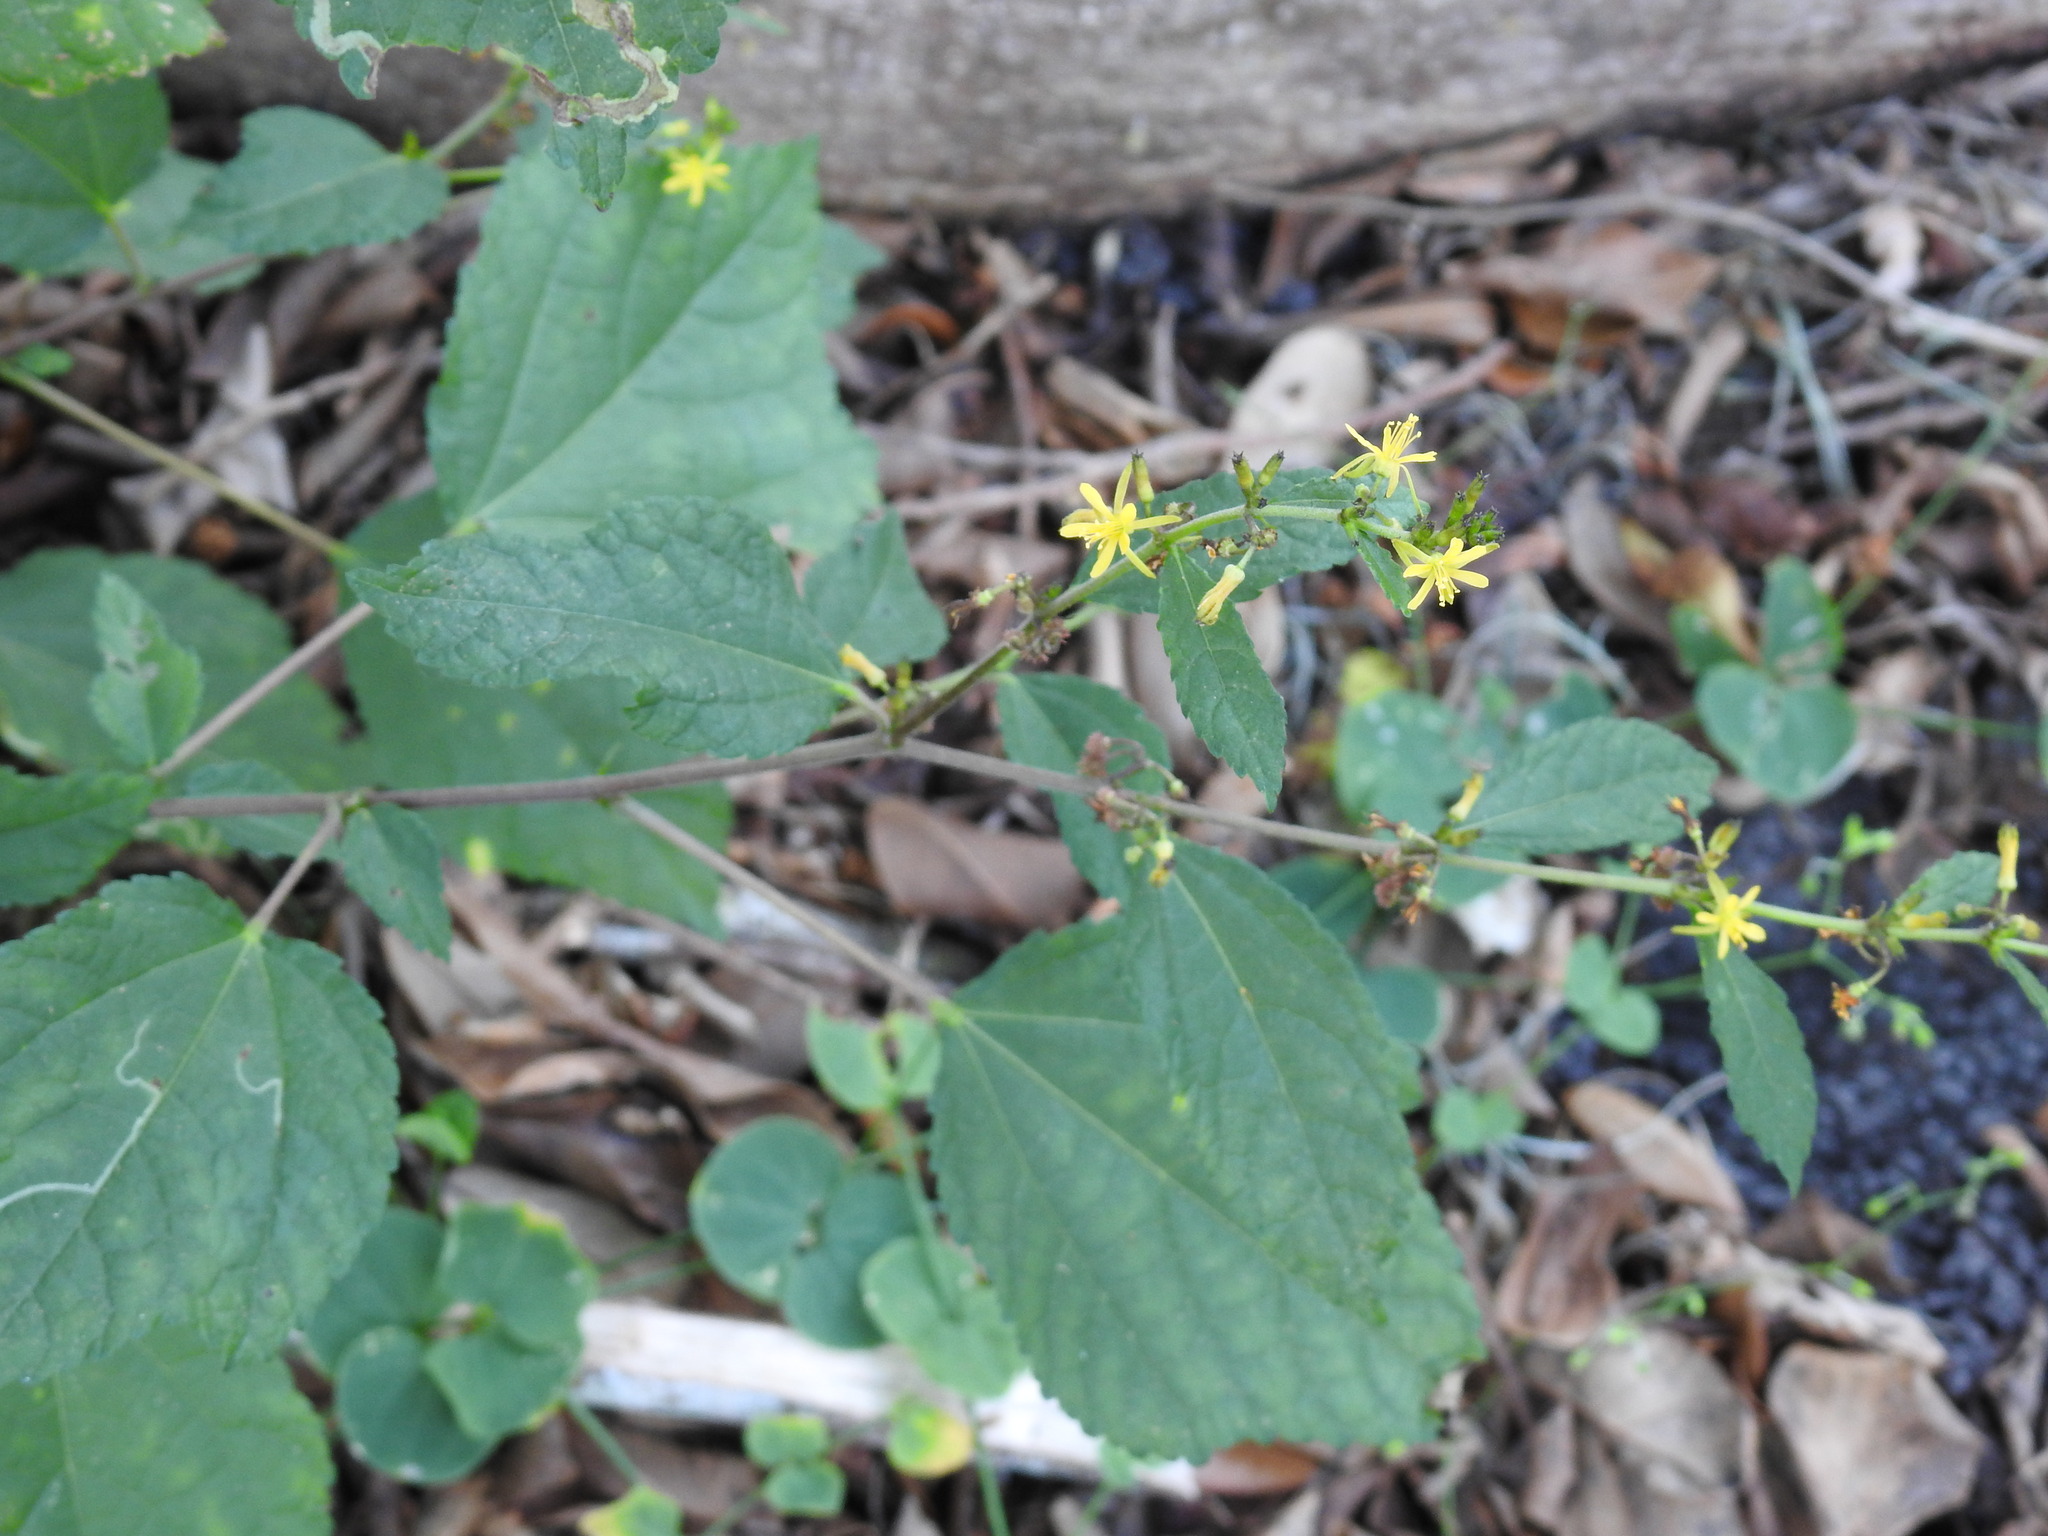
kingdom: Plantae
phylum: Tracheophyta
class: Magnoliopsida
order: Malvales
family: Malvaceae
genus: Triumfetta
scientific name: Triumfetta semitriloba
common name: Sacramento burbark
